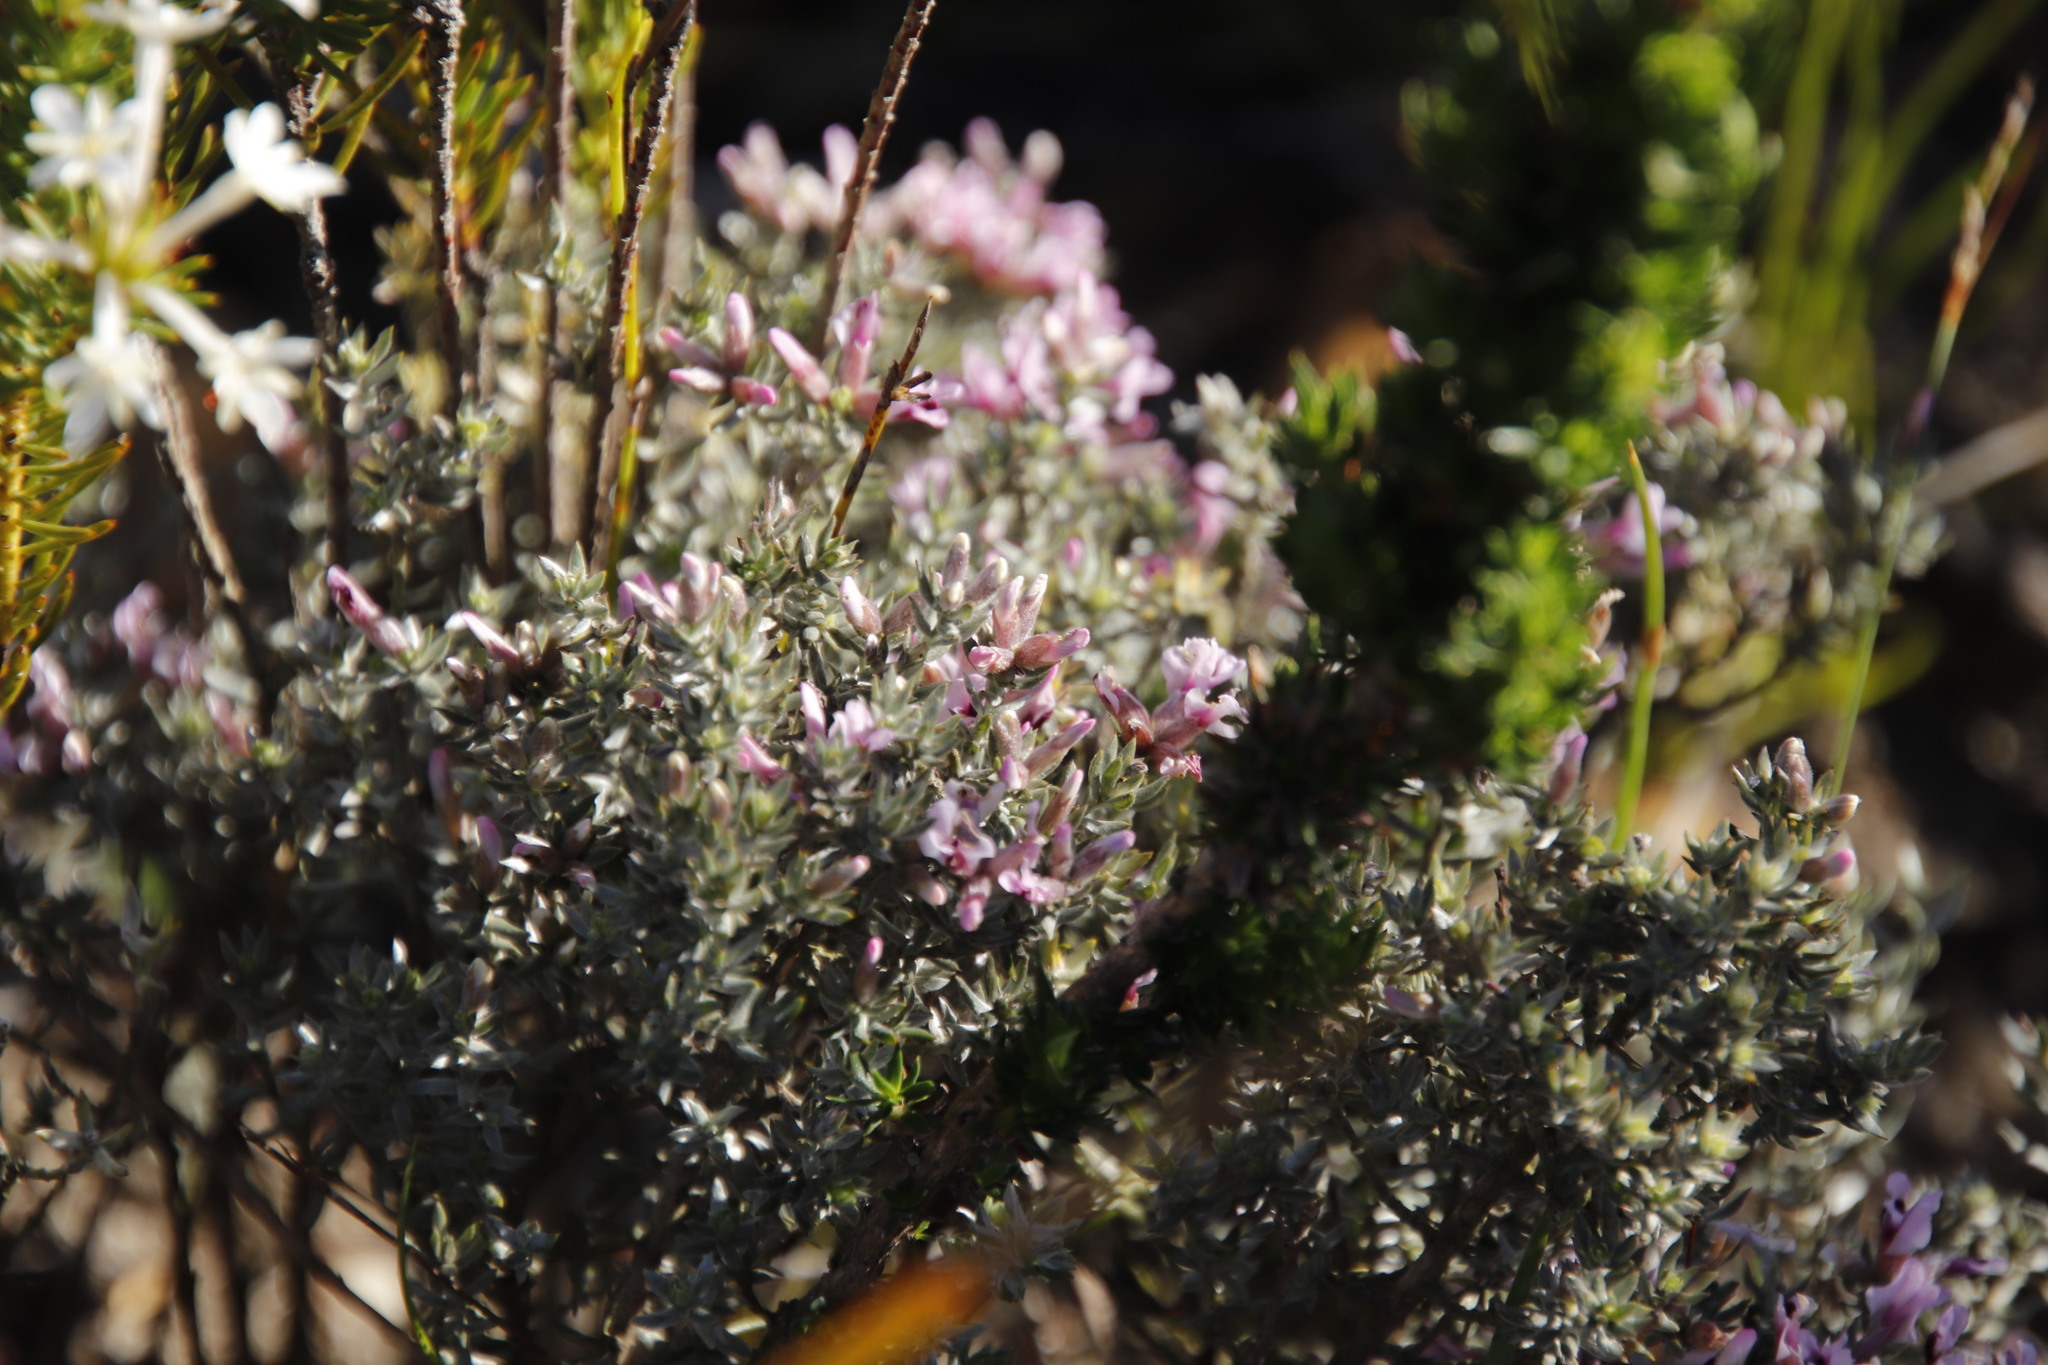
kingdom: Plantae
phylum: Tracheophyta
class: Magnoliopsida
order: Fabales
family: Fabaceae
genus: Amphithalea
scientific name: Amphithalea ericifolia
